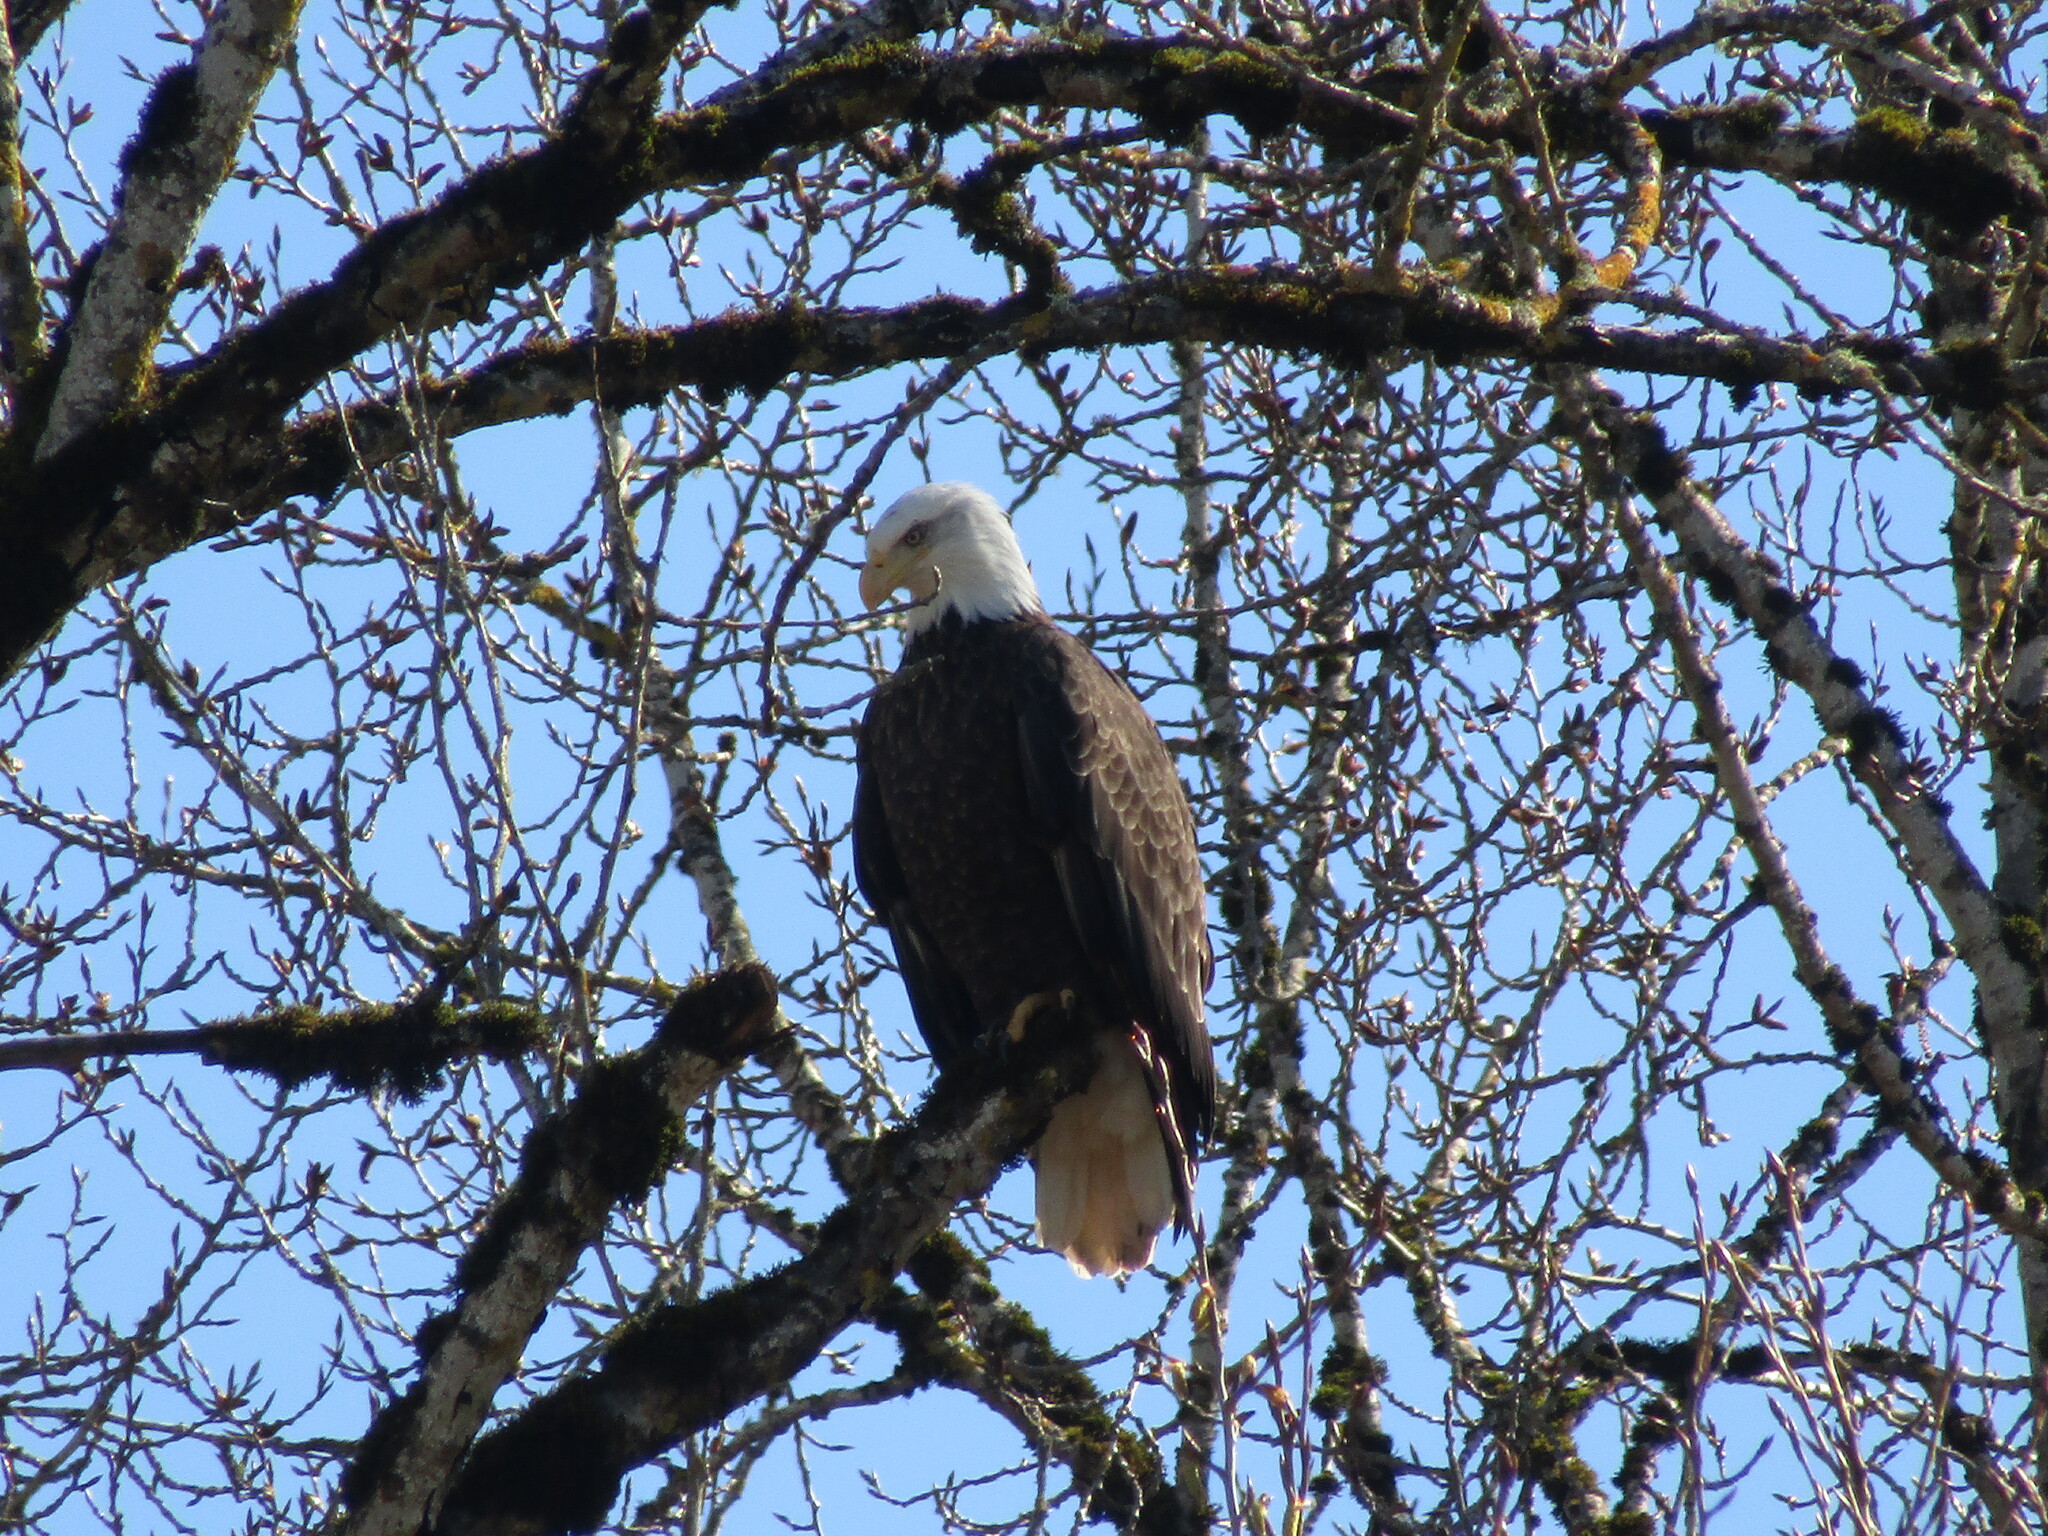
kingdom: Animalia
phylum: Chordata
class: Aves
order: Accipitriformes
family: Accipitridae
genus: Haliaeetus
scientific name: Haliaeetus leucocephalus
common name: Bald eagle
